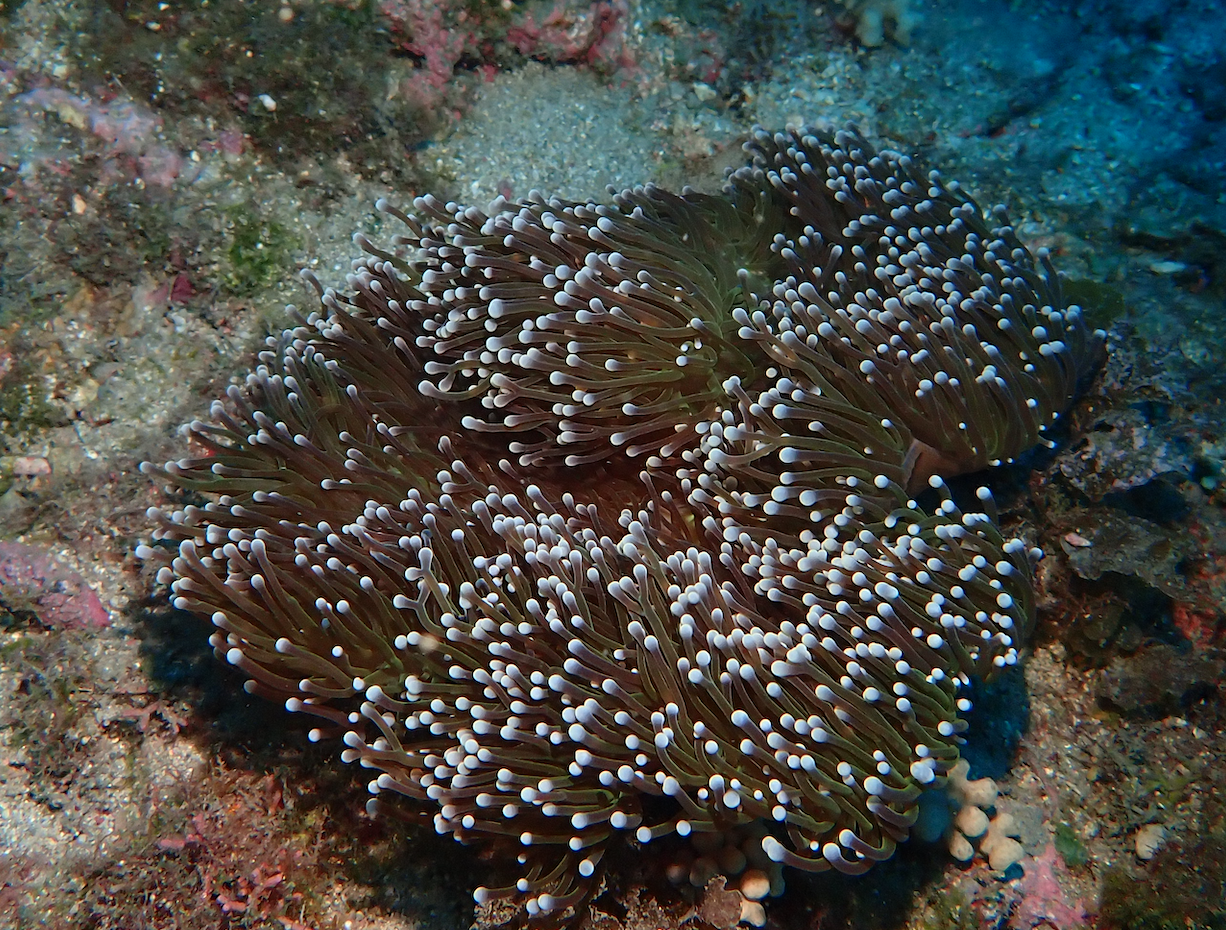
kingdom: Animalia
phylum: Cnidaria
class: Anthozoa
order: Actiniaria
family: Stichodactylidae
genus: Radianthus
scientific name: Radianthus magnifica
